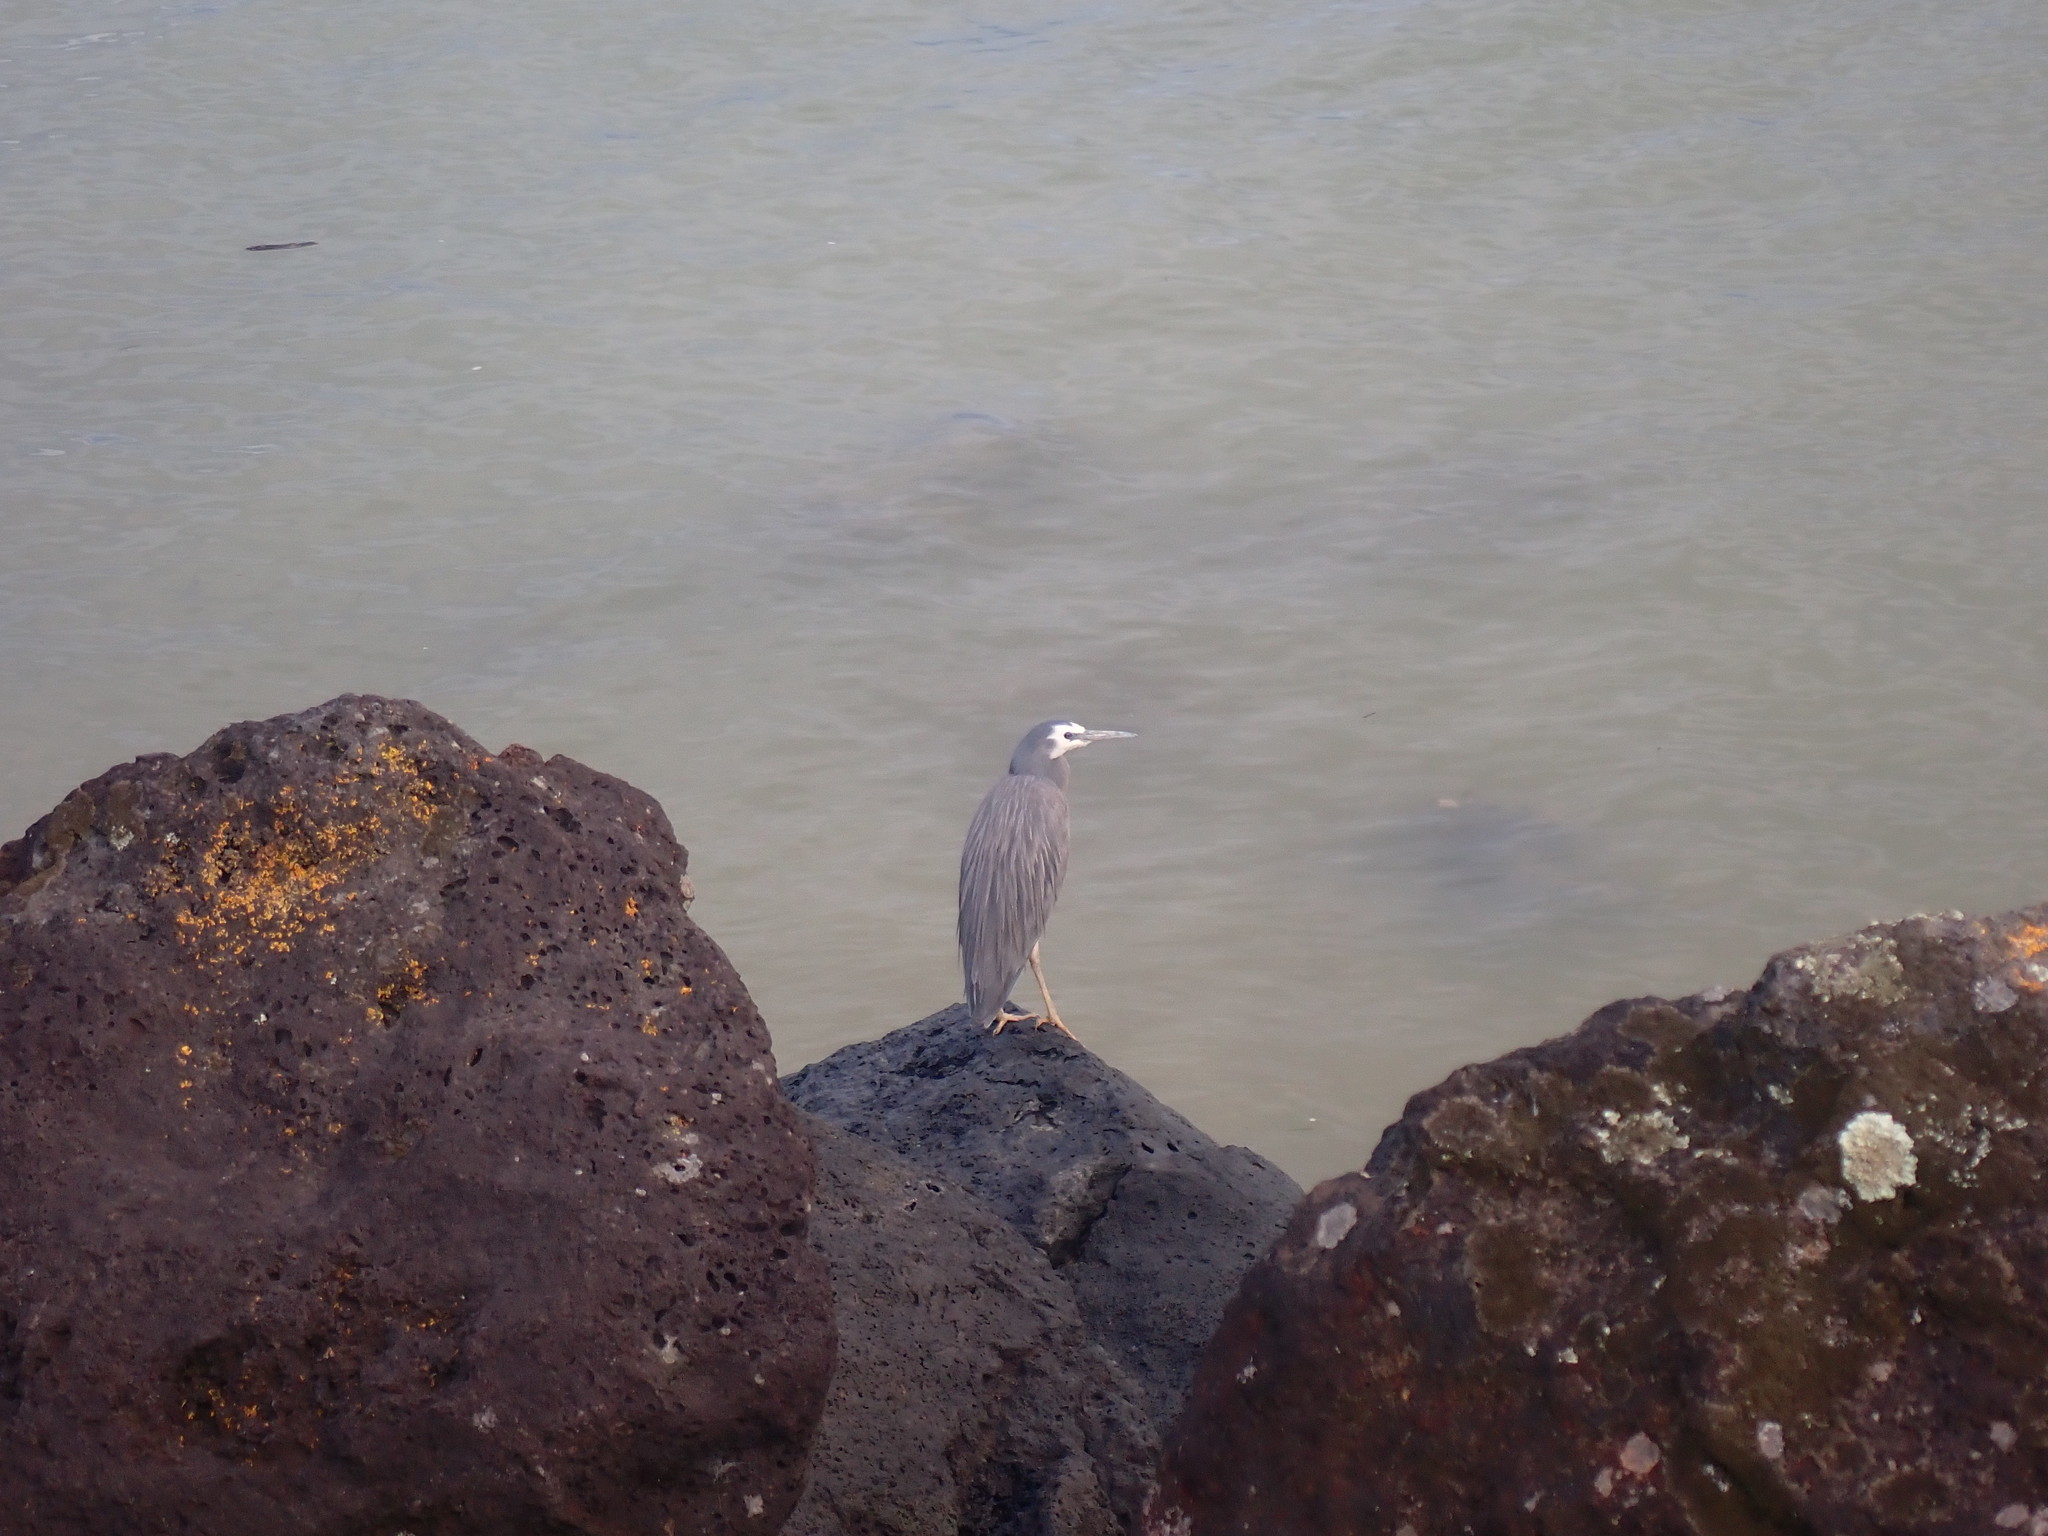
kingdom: Animalia
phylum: Chordata
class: Aves
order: Pelecaniformes
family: Ardeidae
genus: Egretta
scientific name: Egretta novaehollandiae
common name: White-faced heron
